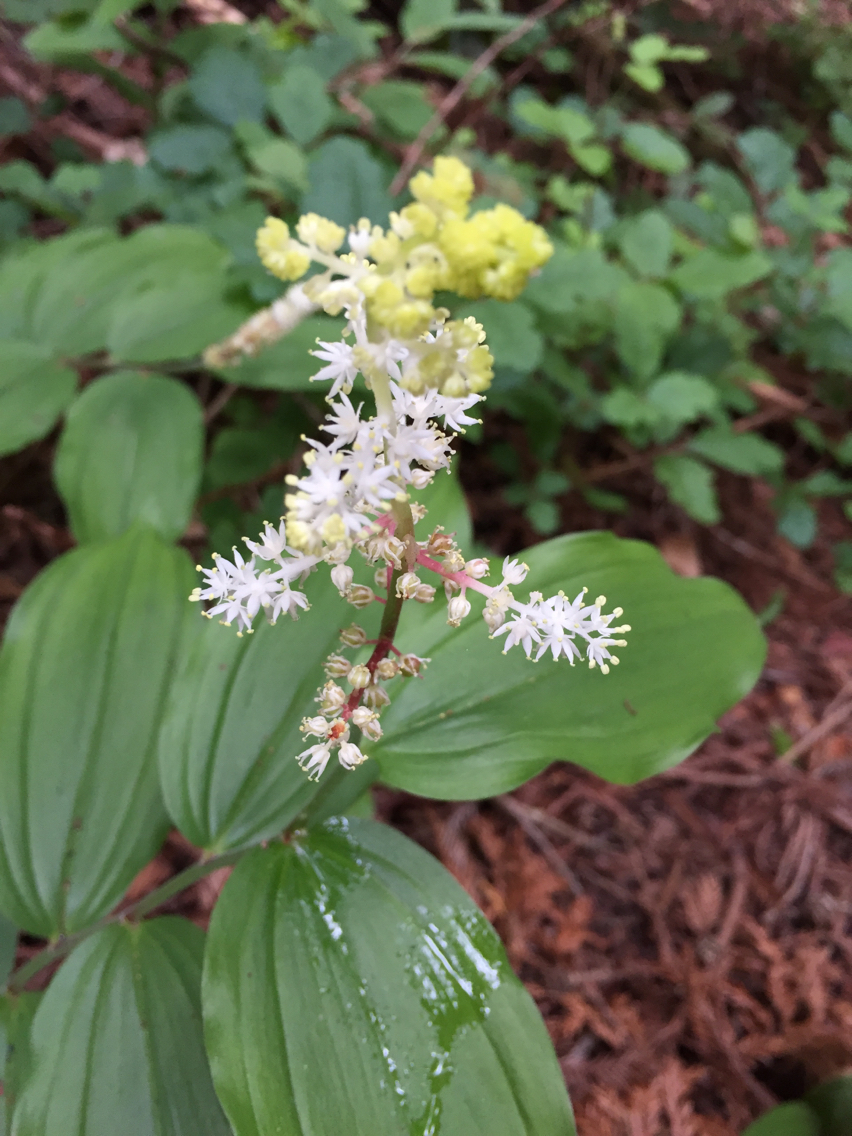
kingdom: Plantae
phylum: Tracheophyta
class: Liliopsida
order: Asparagales
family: Asparagaceae
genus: Maianthemum
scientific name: Maianthemum racemosum
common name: False spikenard
